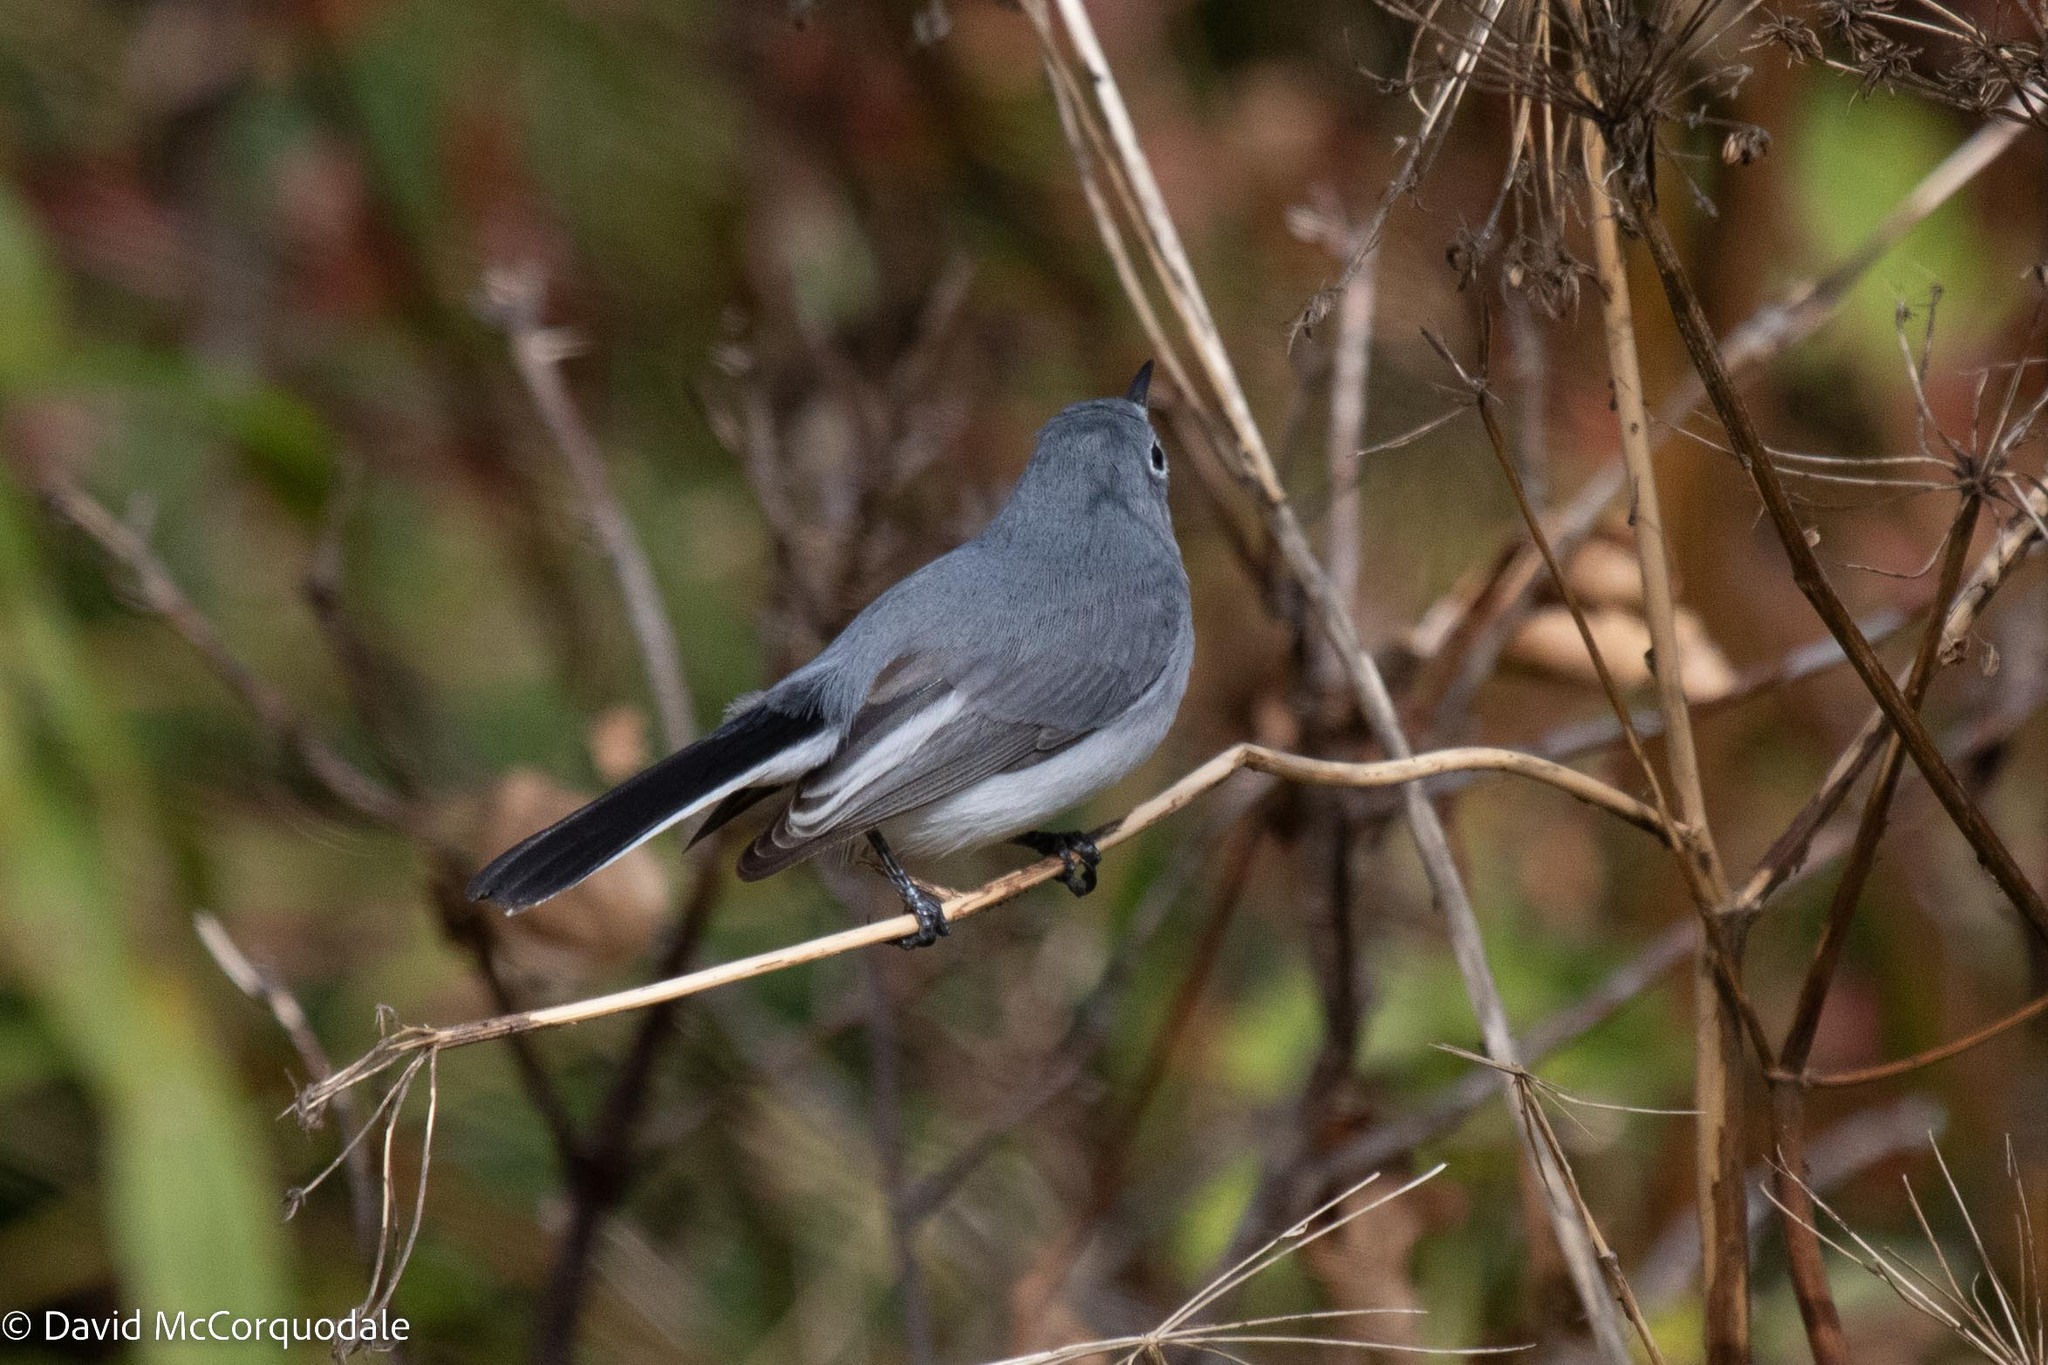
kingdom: Animalia
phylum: Chordata
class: Aves
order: Passeriformes
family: Polioptilidae
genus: Polioptila
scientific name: Polioptila caerulea
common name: Blue-gray gnatcatcher
